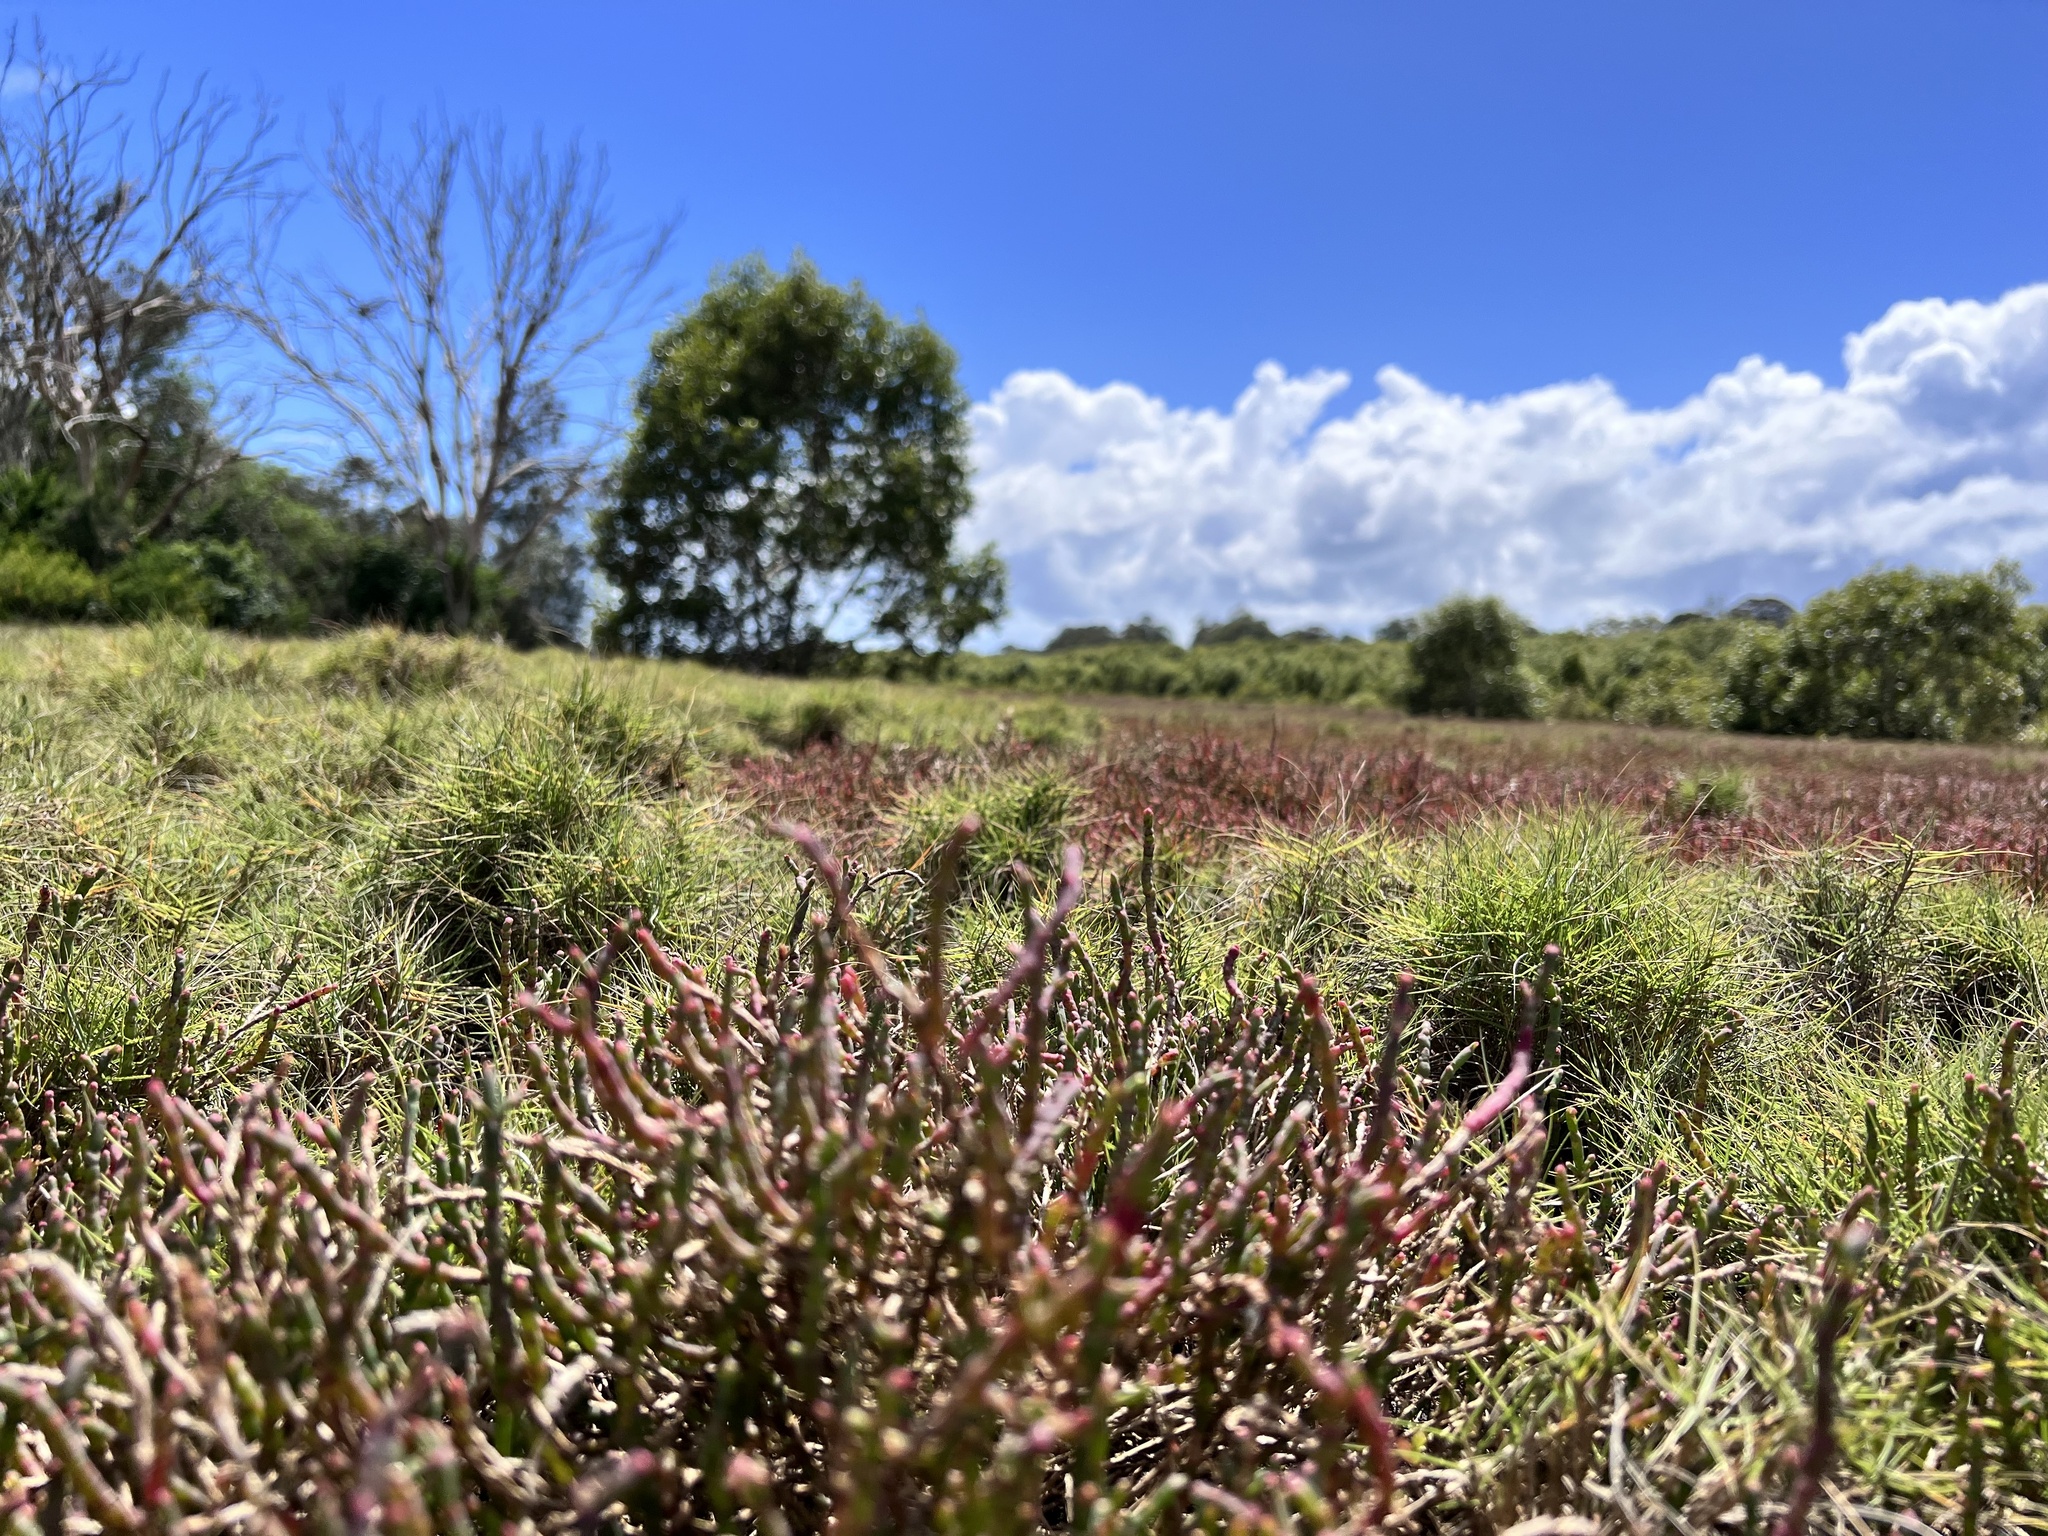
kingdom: Plantae
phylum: Tracheophyta
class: Magnoliopsida
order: Caryophyllales
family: Amaranthaceae
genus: Suaeda
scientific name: Suaeda australis
